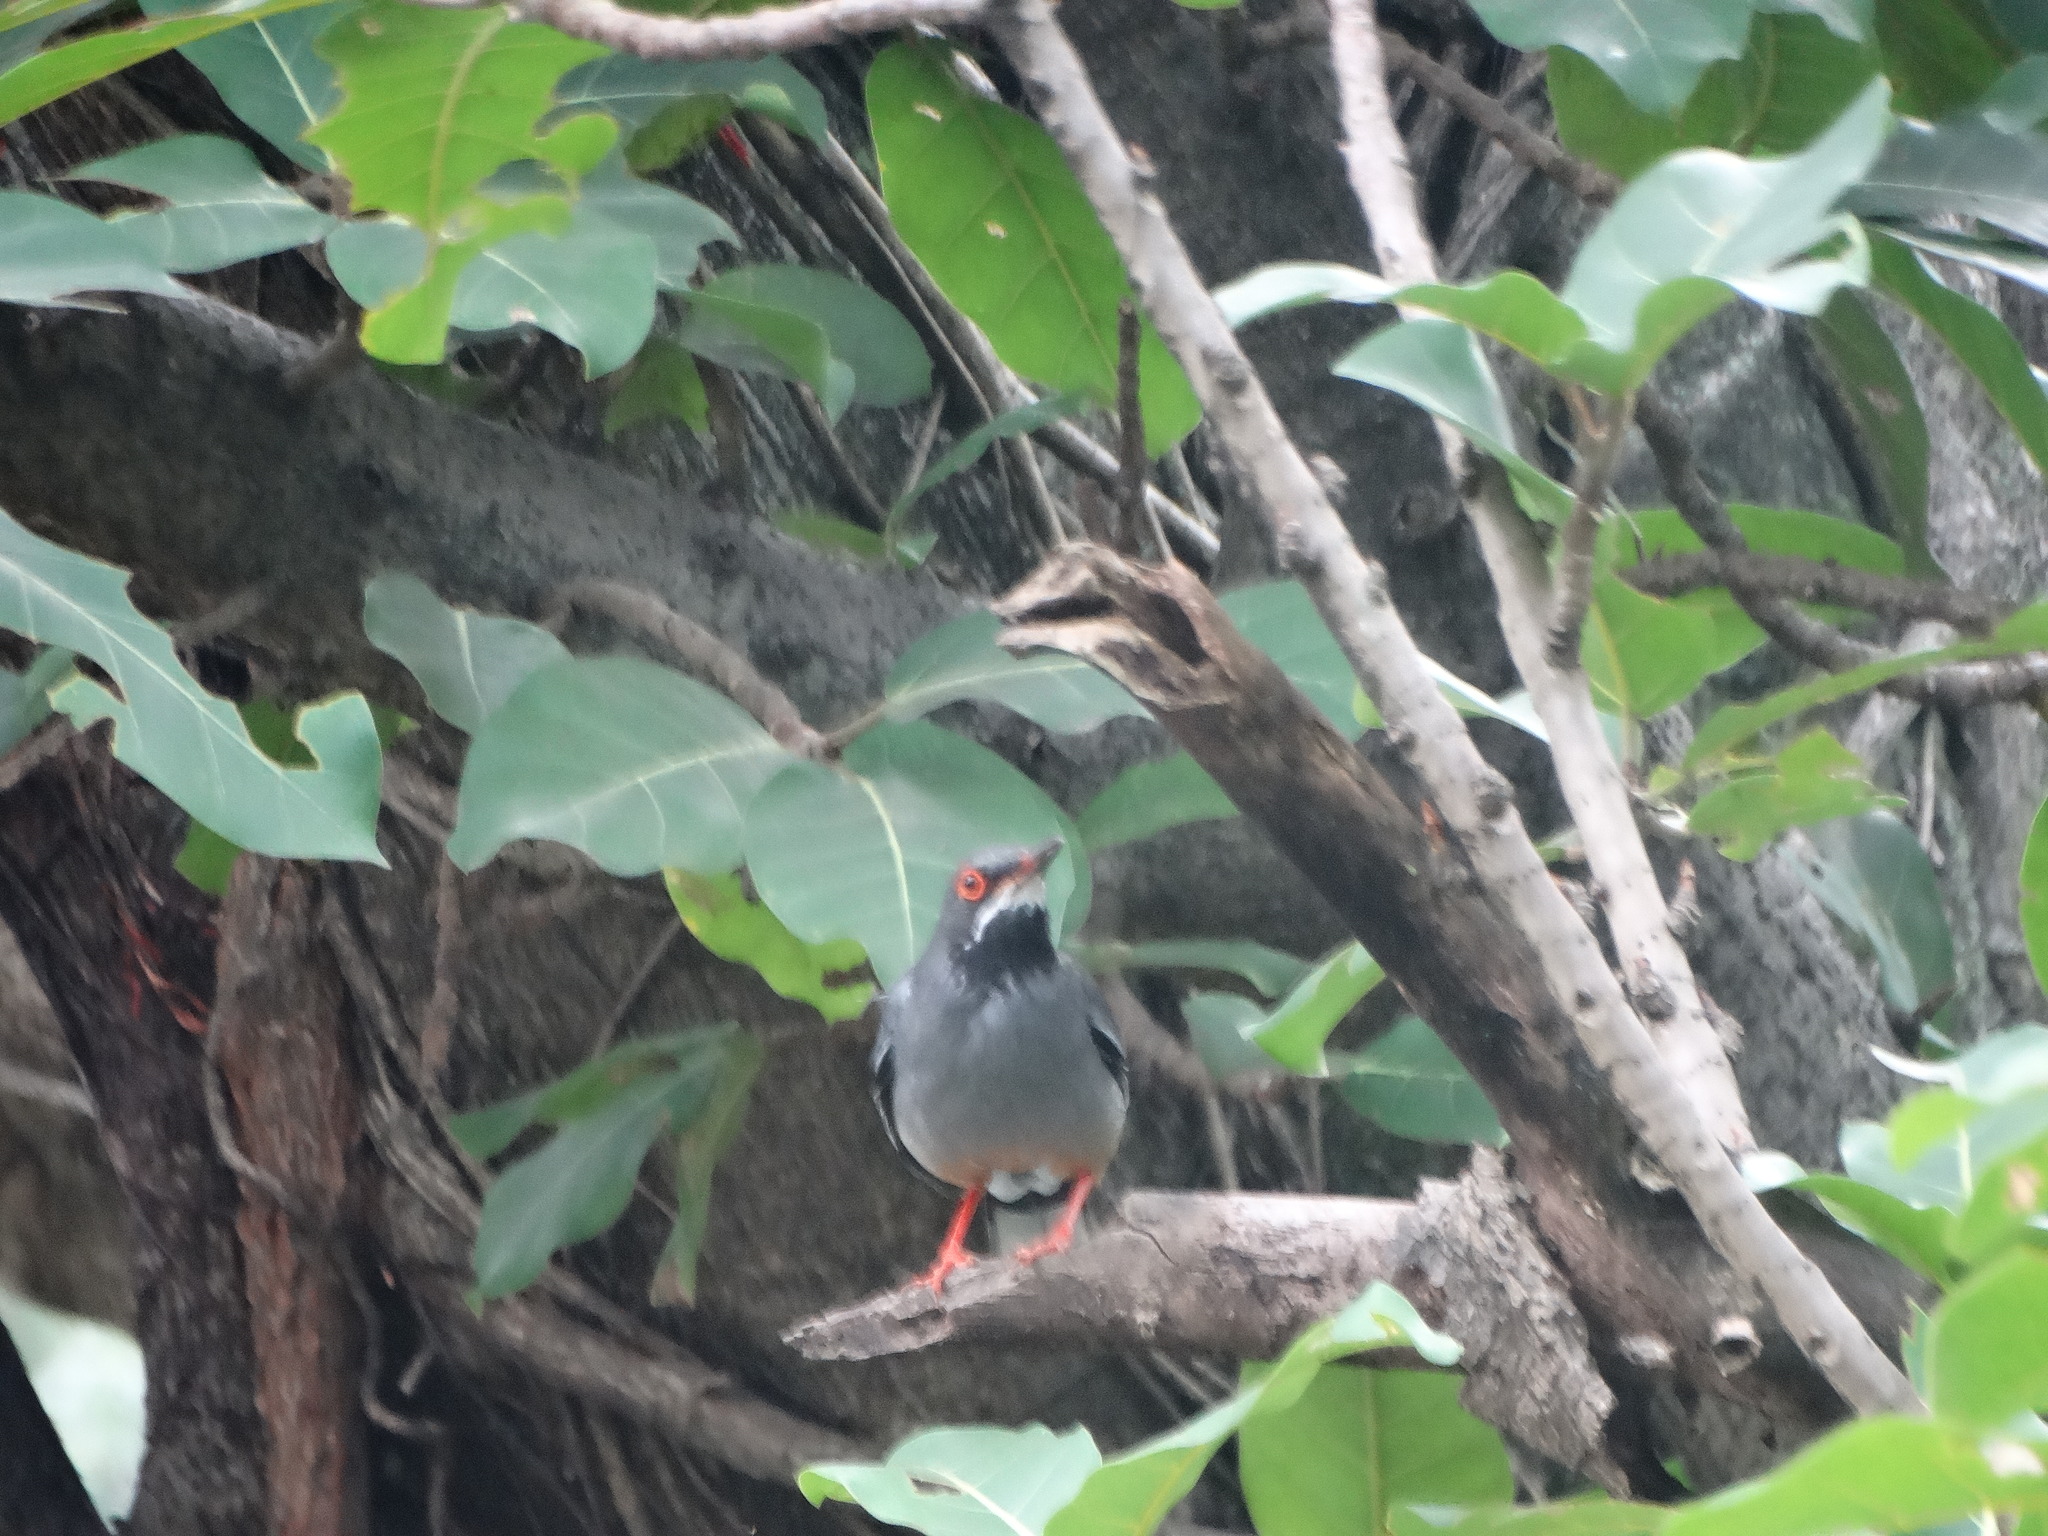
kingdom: Animalia
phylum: Chordata
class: Aves
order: Passeriformes
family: Turdidae
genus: Turdus
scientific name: Turdus plumbeus
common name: Red-legged thrush
